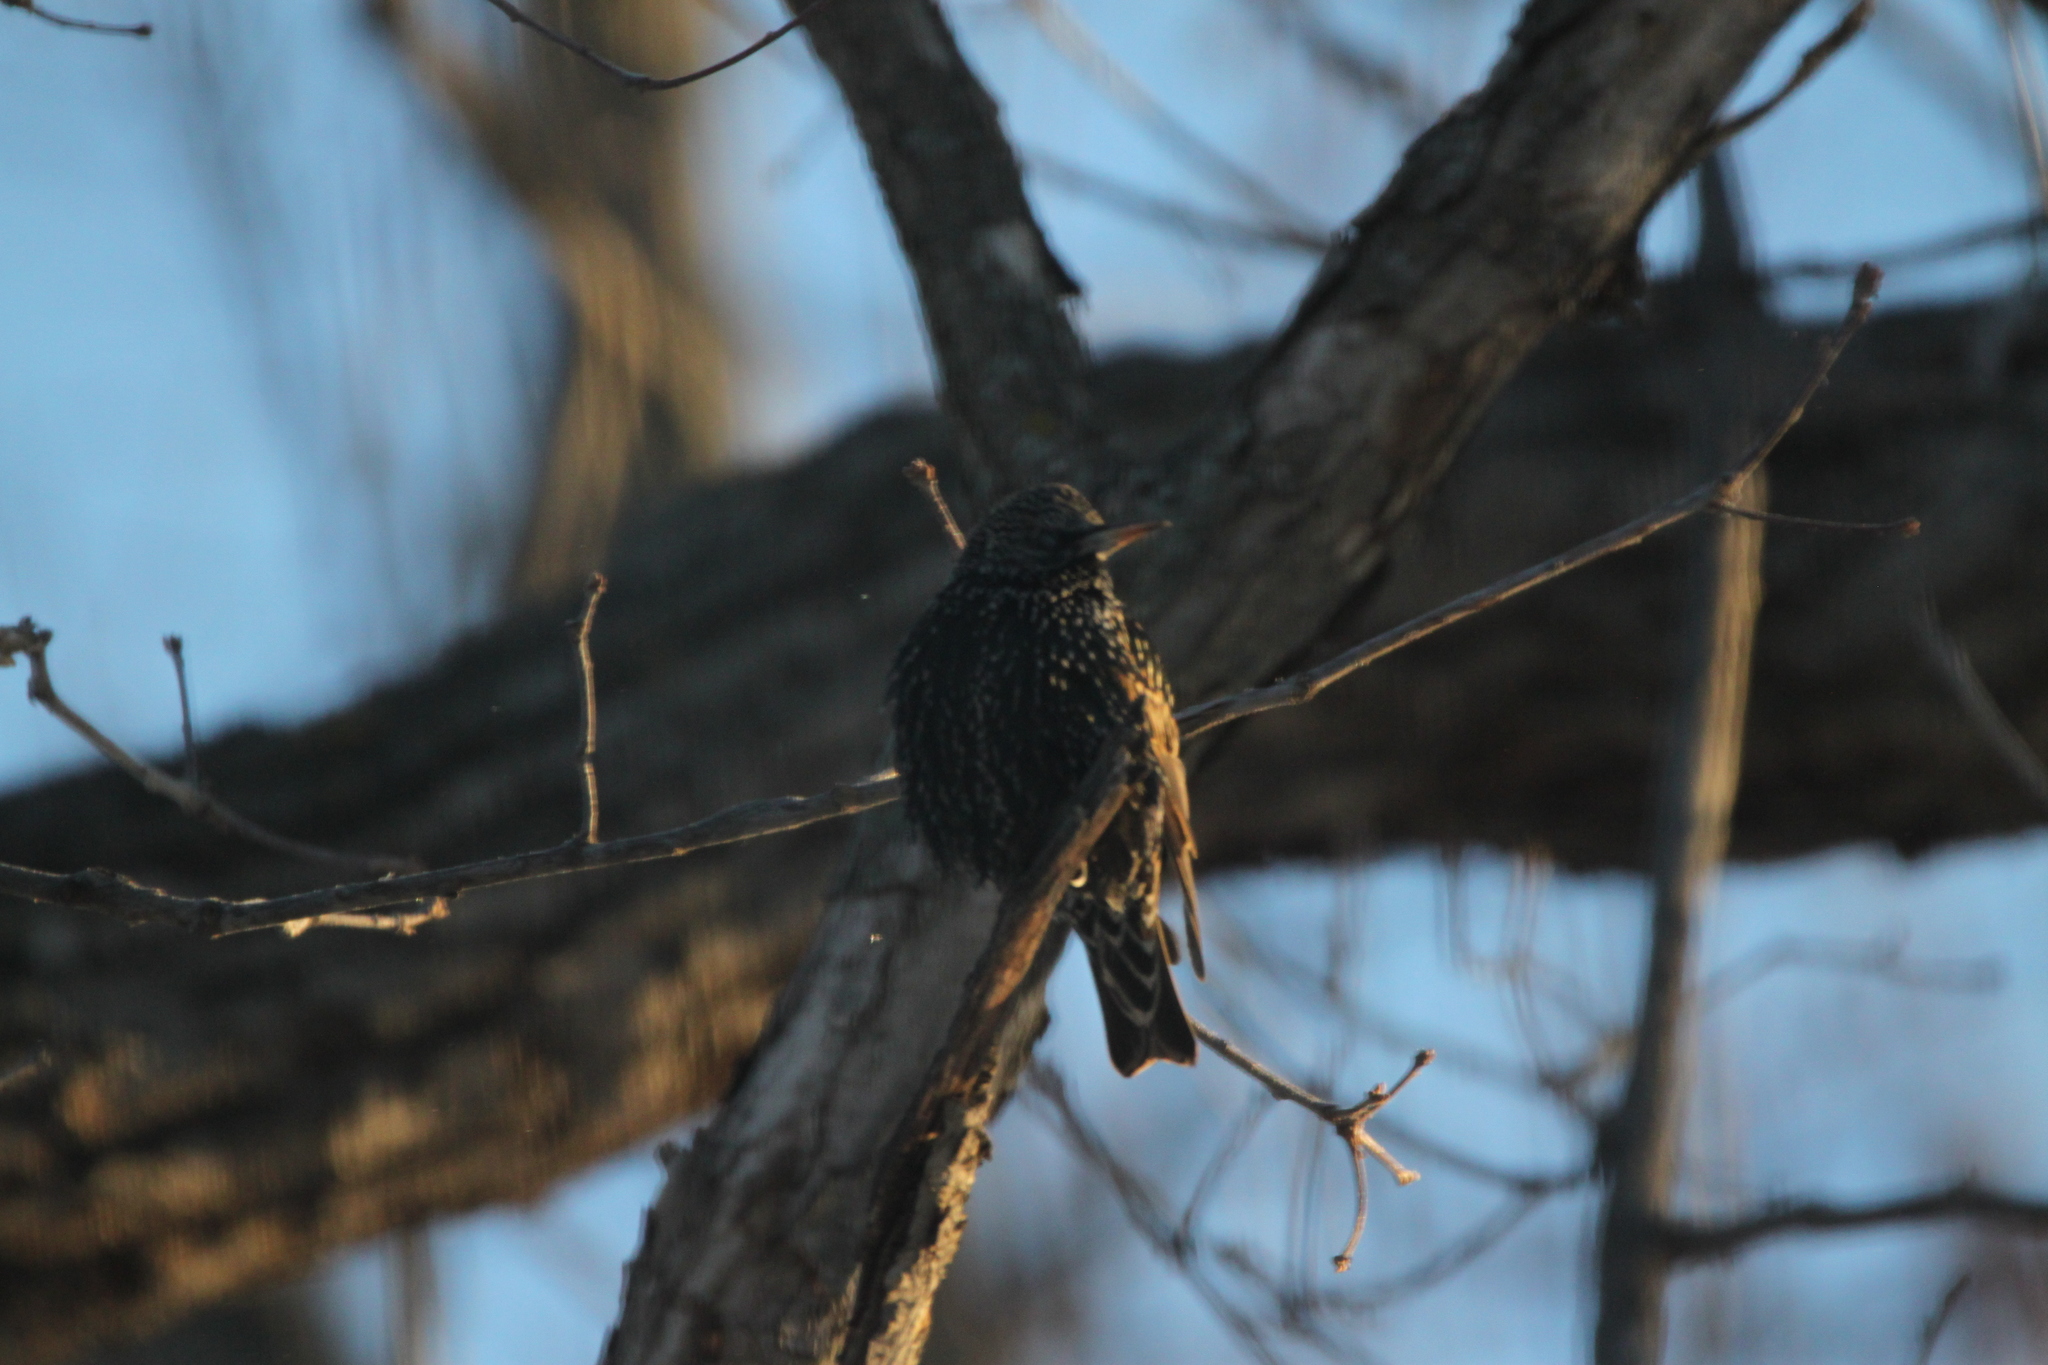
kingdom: Animalia
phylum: Chordata
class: Aves
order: Passeriformes
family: Sturnidae
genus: Sturnus
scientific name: Sturnus vulgaris
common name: Common starling
